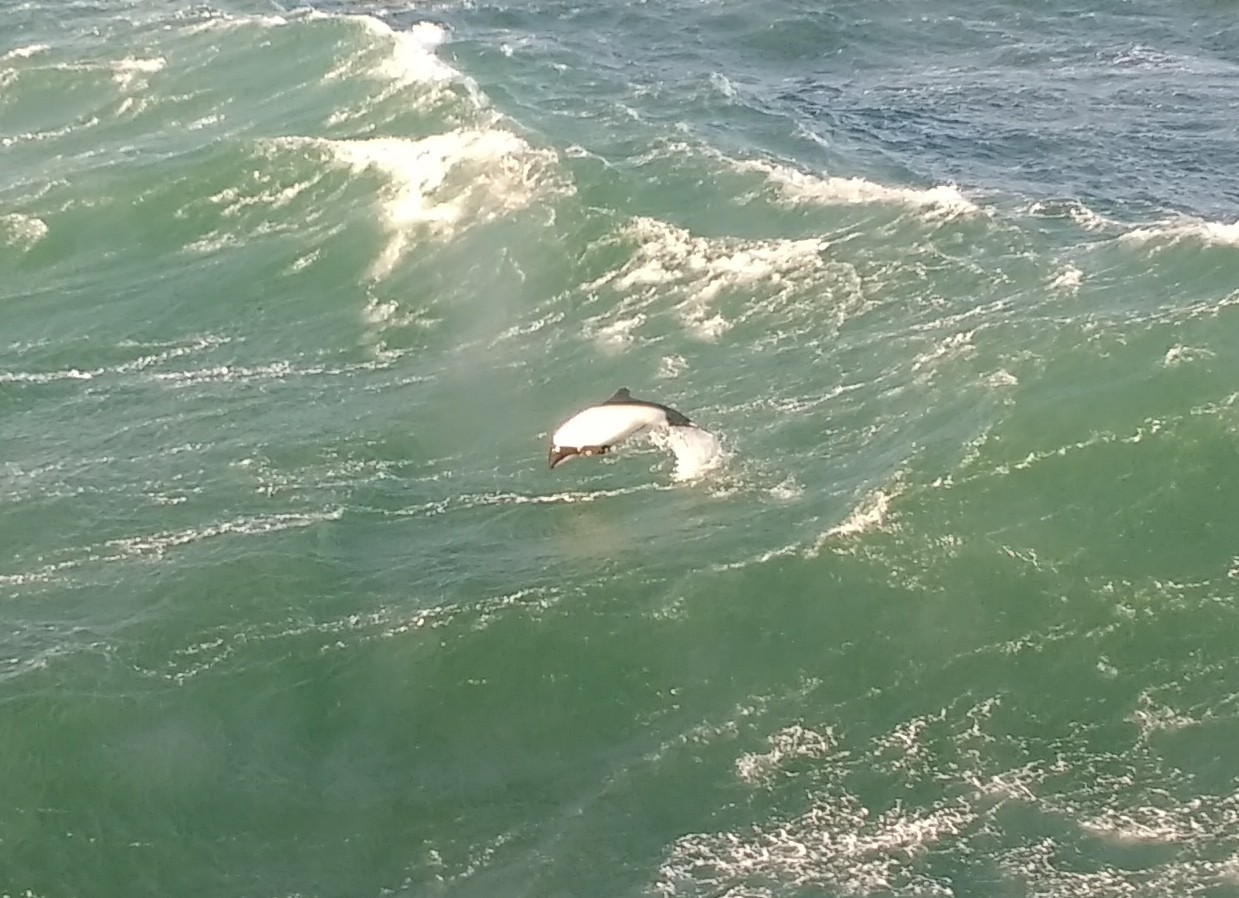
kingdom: Animalia
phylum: Chordata
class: Mammalia
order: Cetacea
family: Delphinidae
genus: Cephalorhynchus
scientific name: Cephalorhynchus commersonii
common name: Commerson's dolphin
